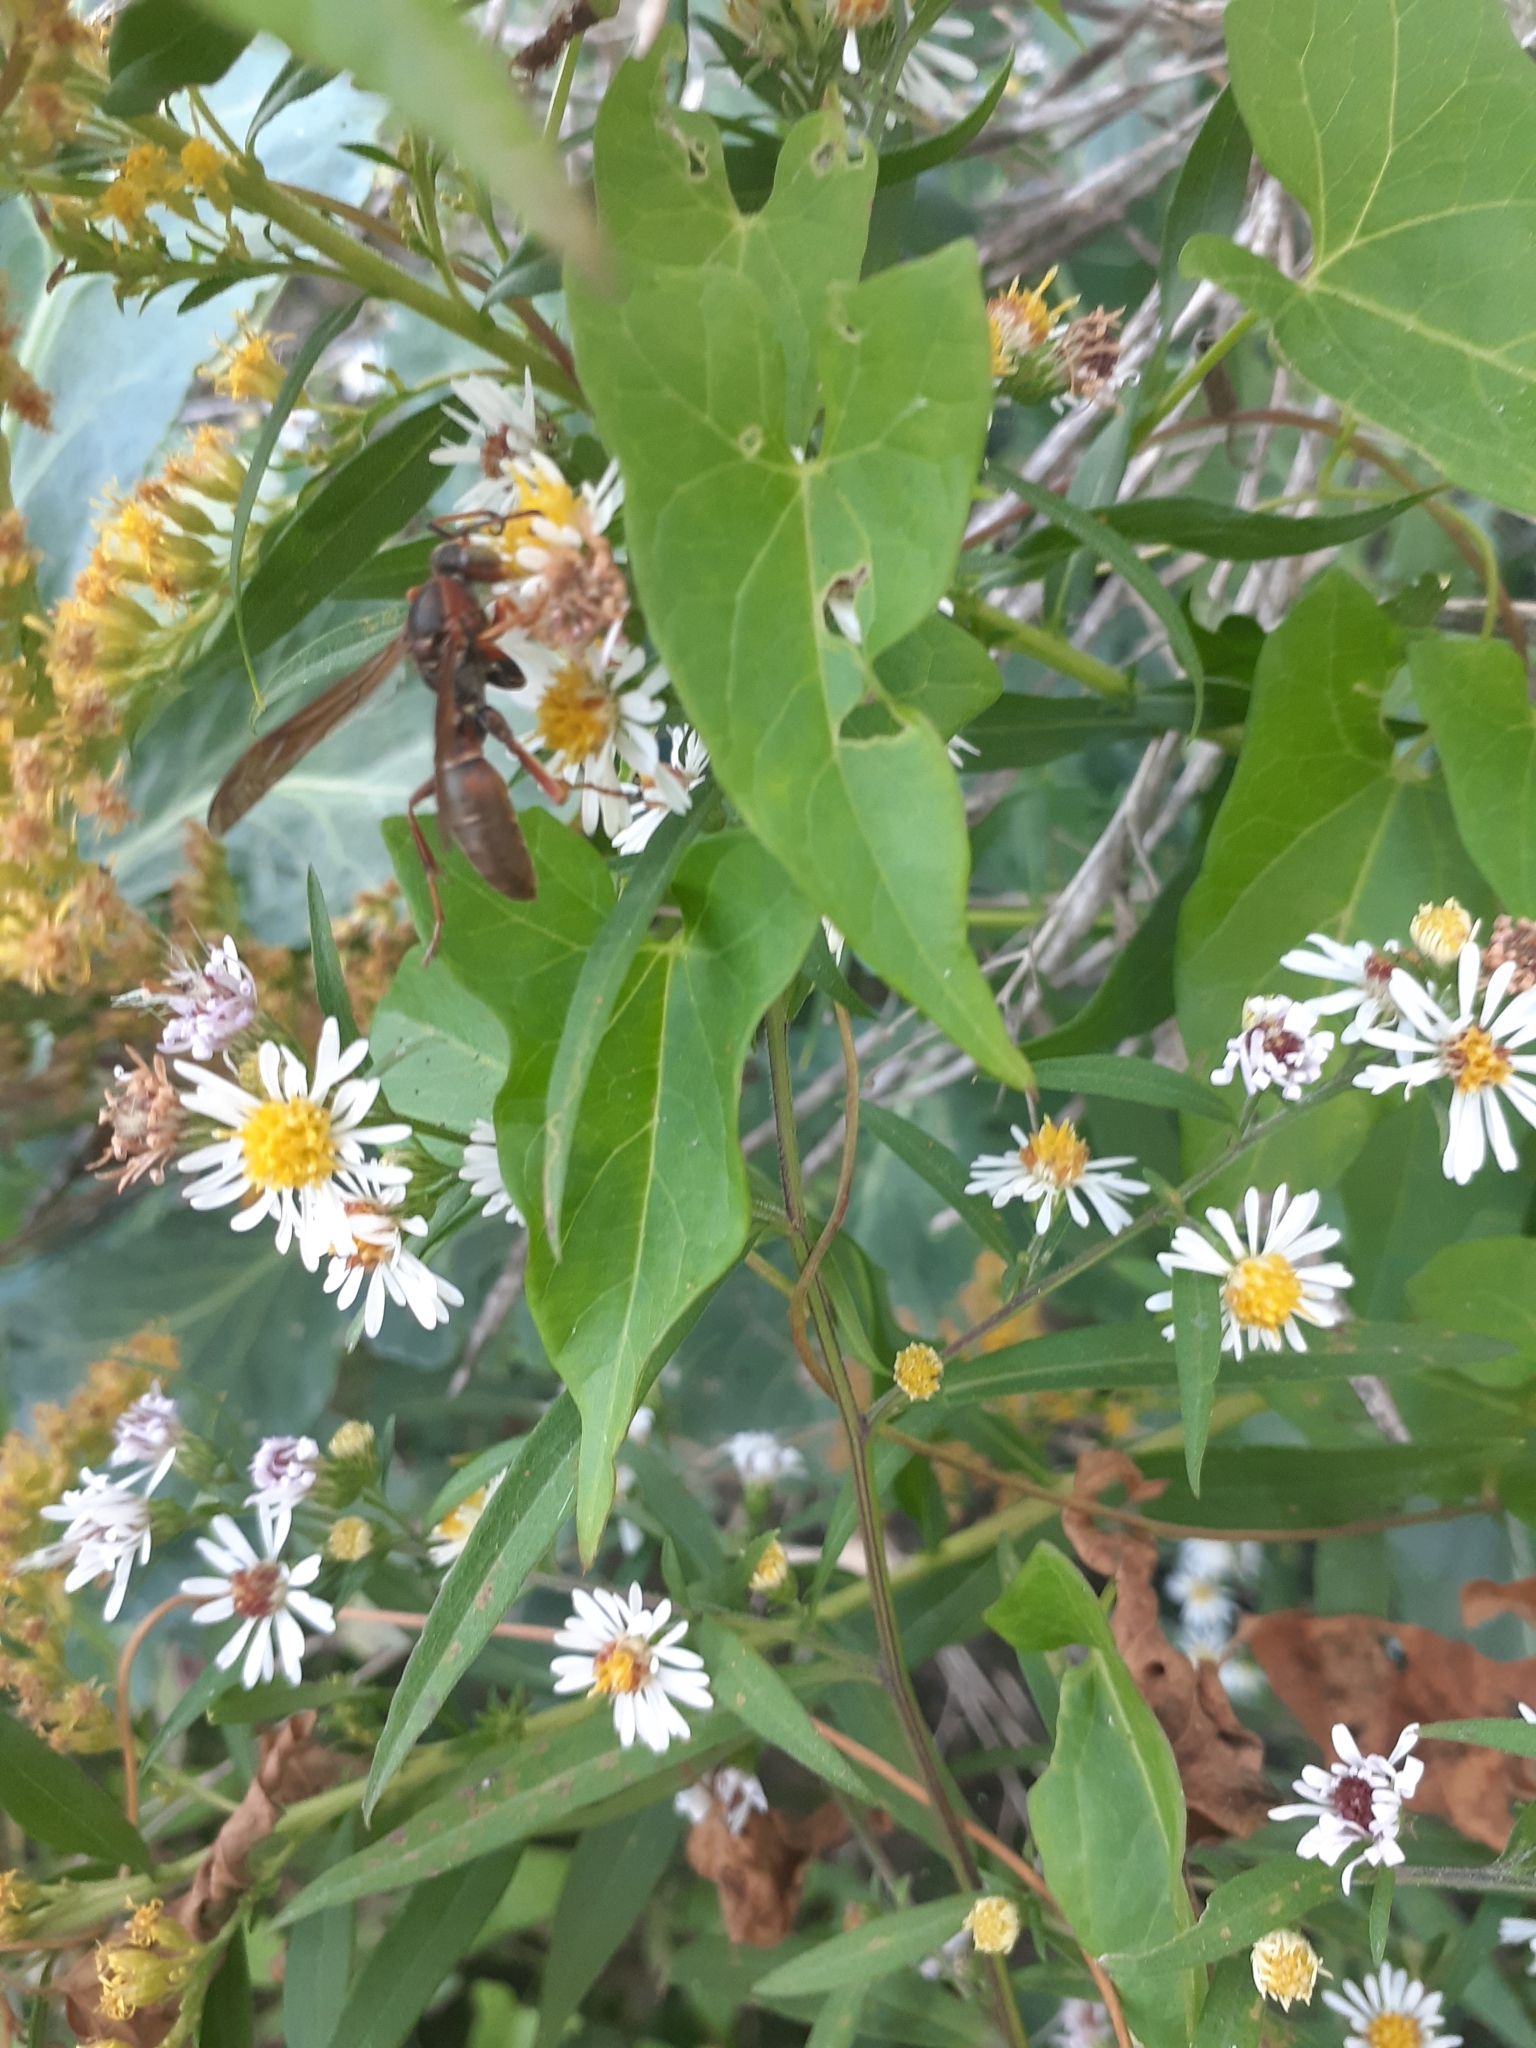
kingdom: Animalia
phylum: Arthropoda
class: Insecta
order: Hymenoptera
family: Eumenidae
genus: Polistes
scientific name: Polistes fuscatus
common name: Dark paper wasp
